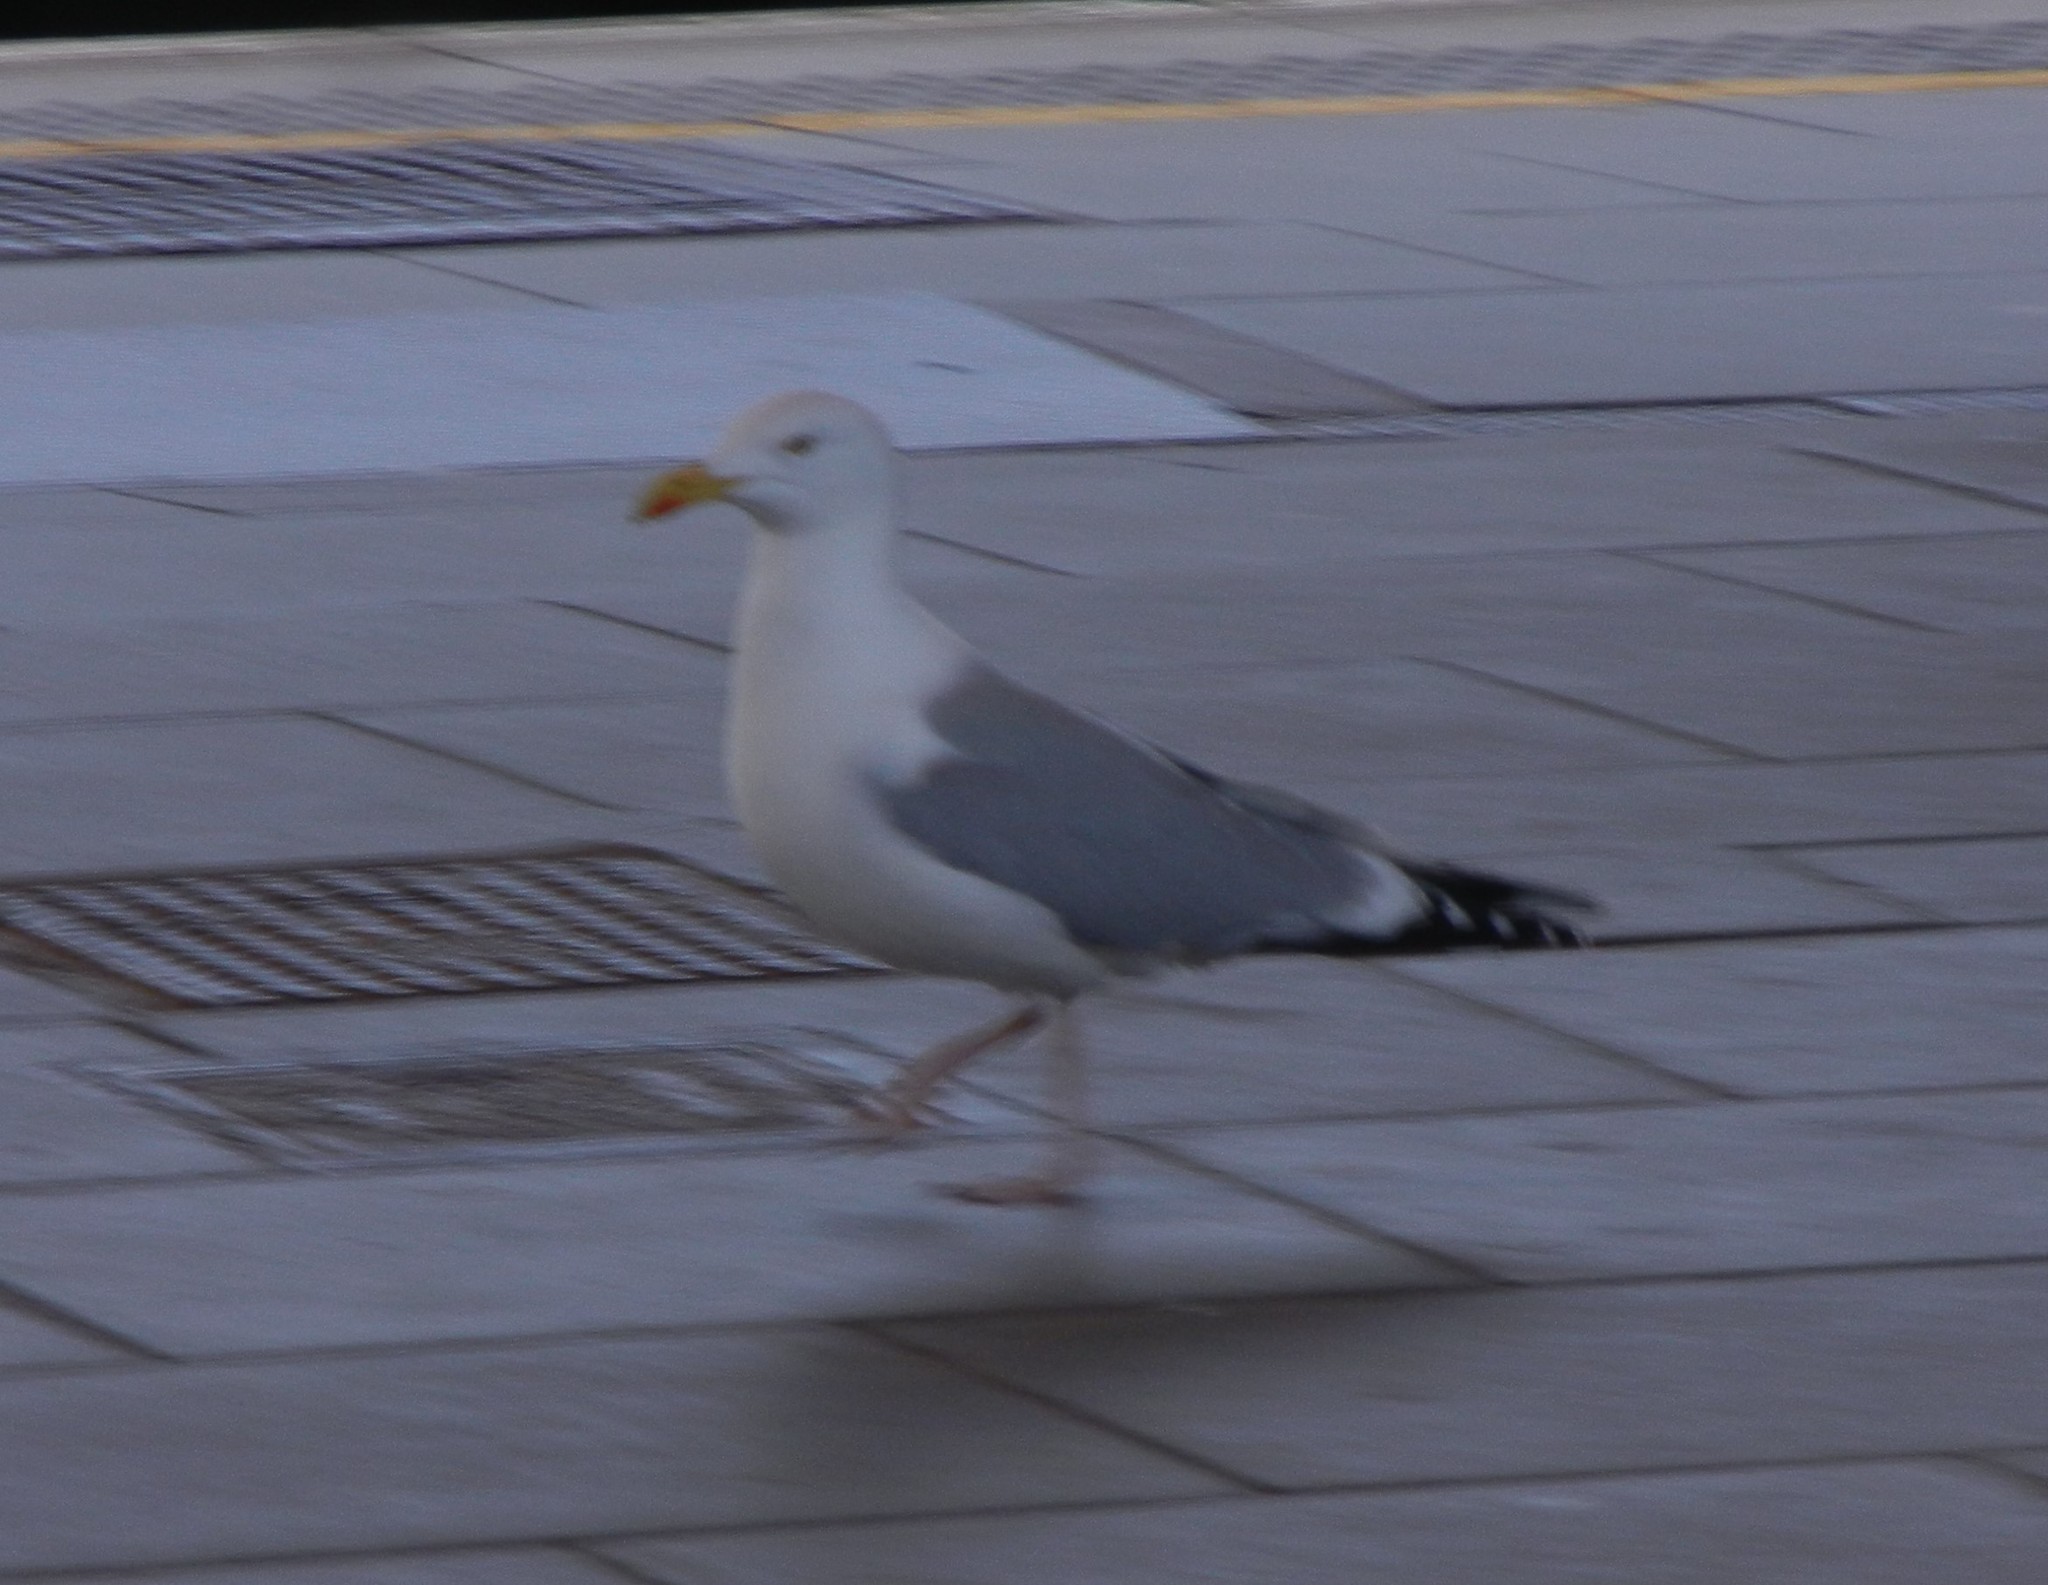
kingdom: Animalia
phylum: Chordata
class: Aves
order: Charadriiformes
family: Laridae
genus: Larus
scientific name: Larus argentatus
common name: Herring gull
